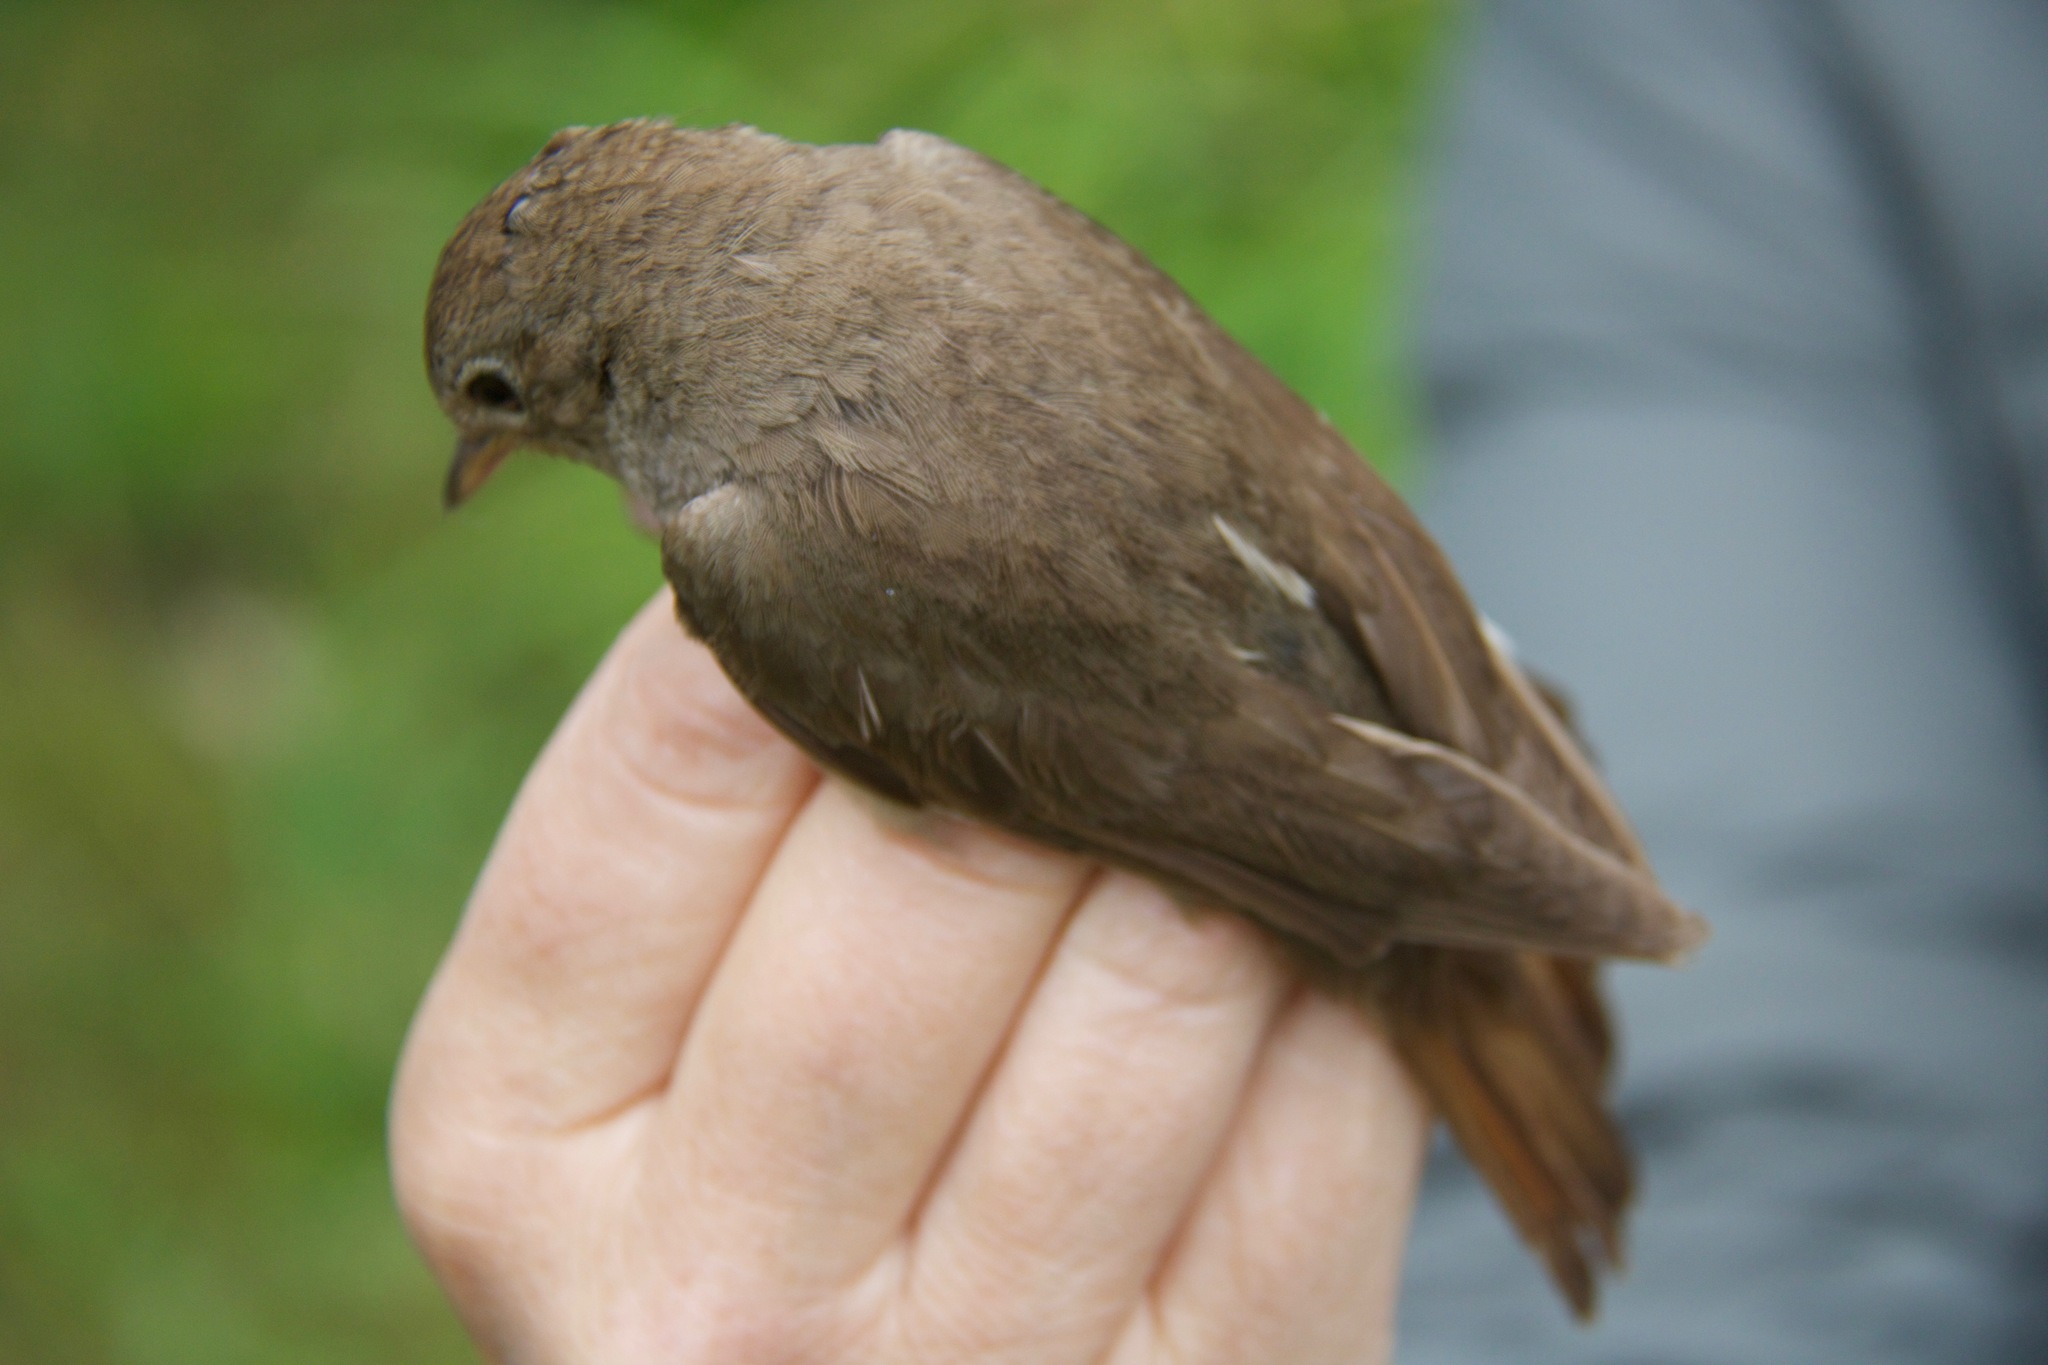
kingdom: Animalia
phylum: Chordata
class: Aves
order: Passeriformes
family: Muscicapidae
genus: Luscinia
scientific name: Luscinia luscinia
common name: Thrush nightingale
